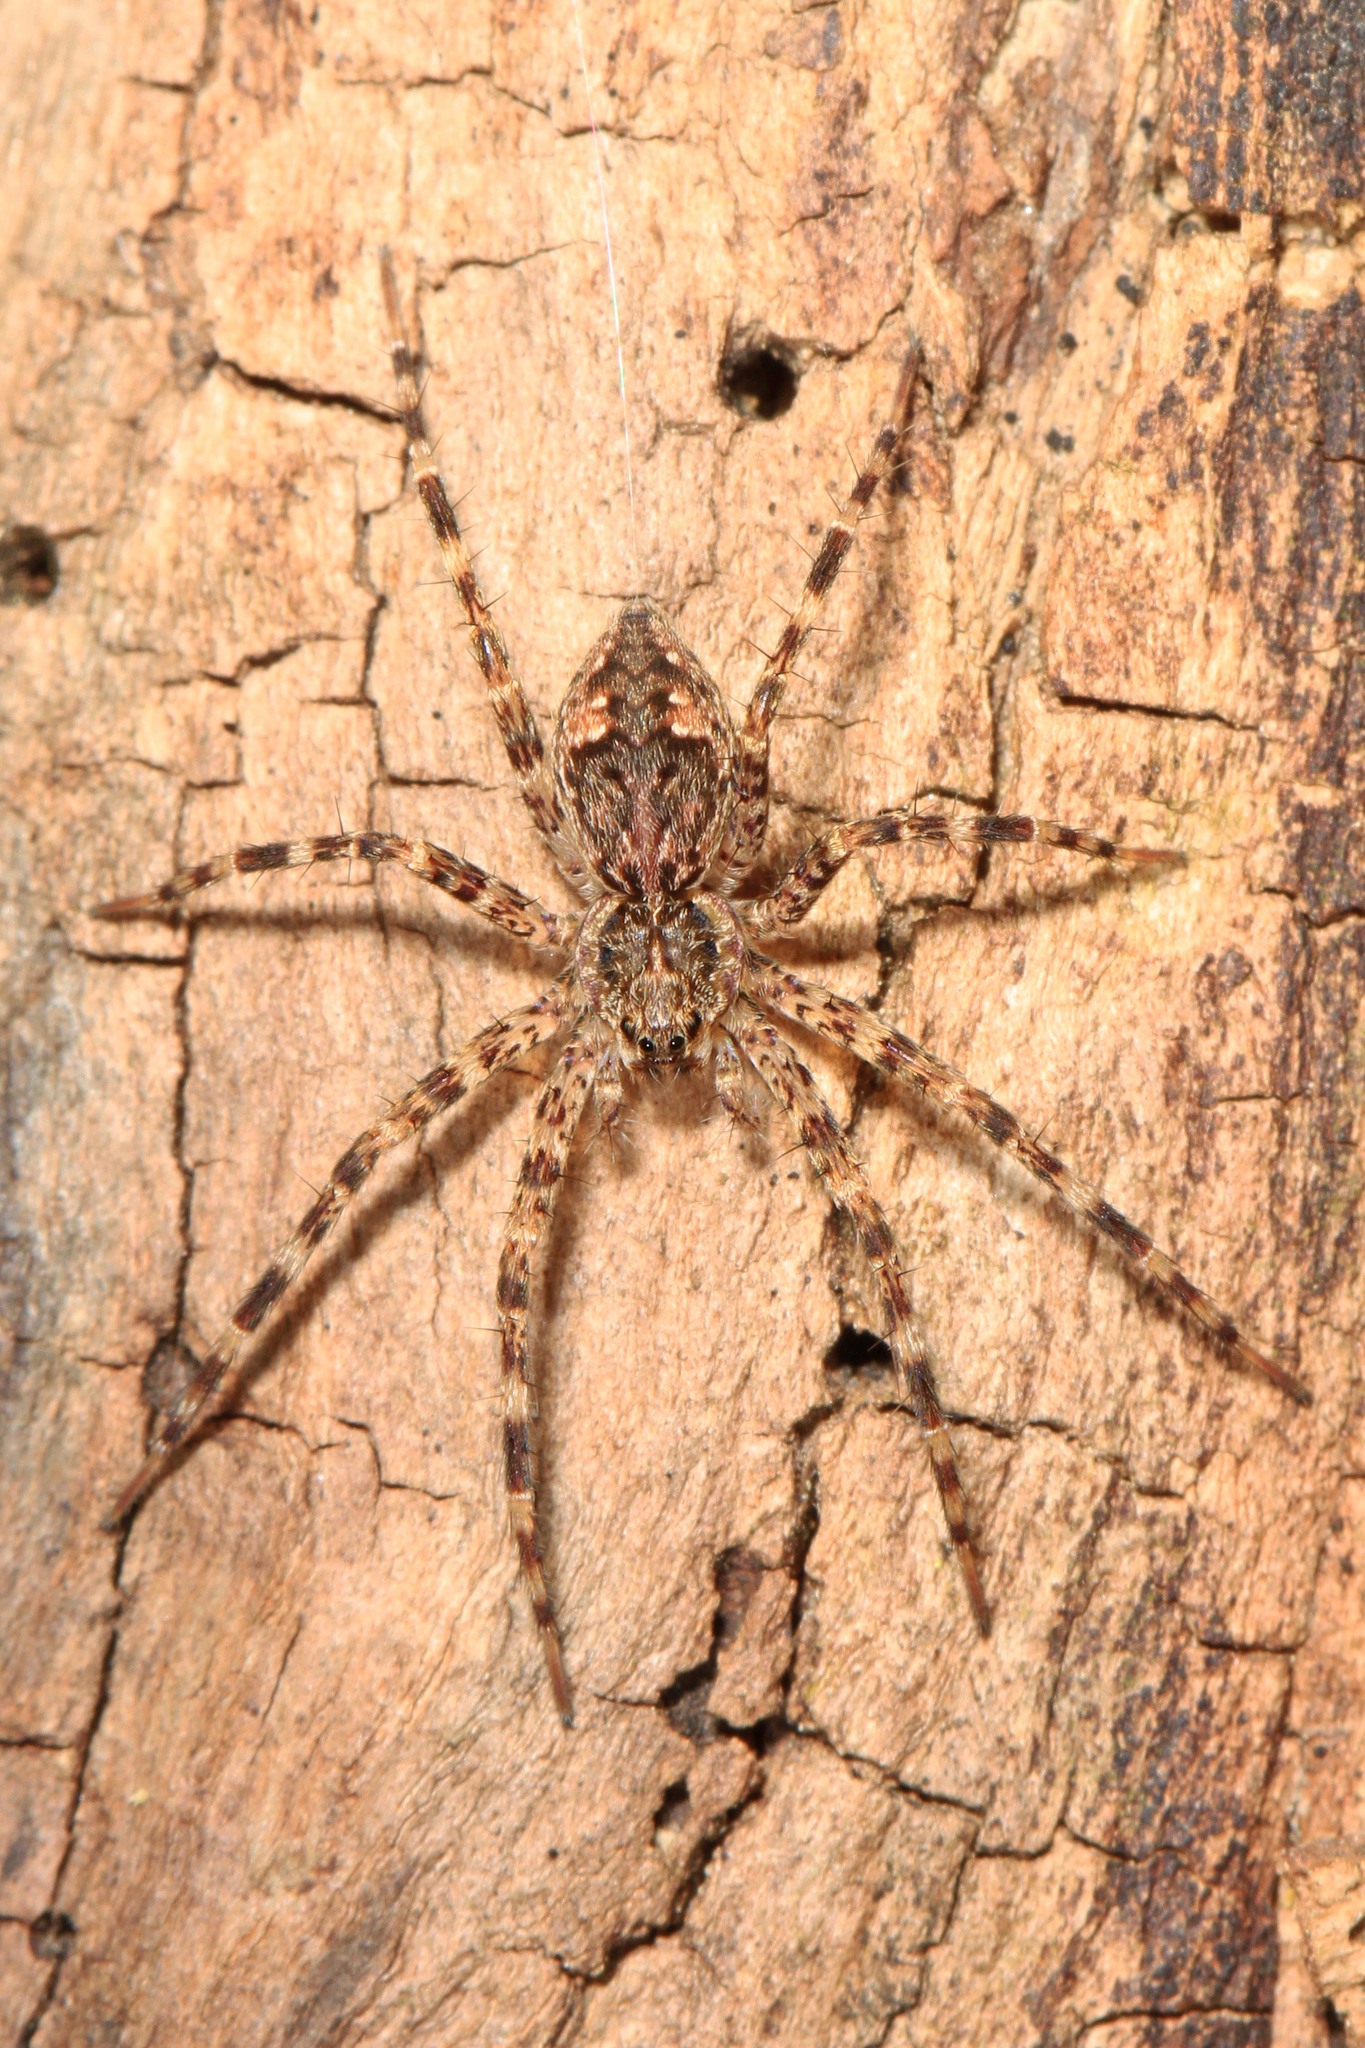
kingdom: Animalia
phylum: Arthropoda
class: Arachnida
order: Araneae
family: Pisauridae
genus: Dolomedes
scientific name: Dolomedes tenebrosus
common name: Dark fishing spider
